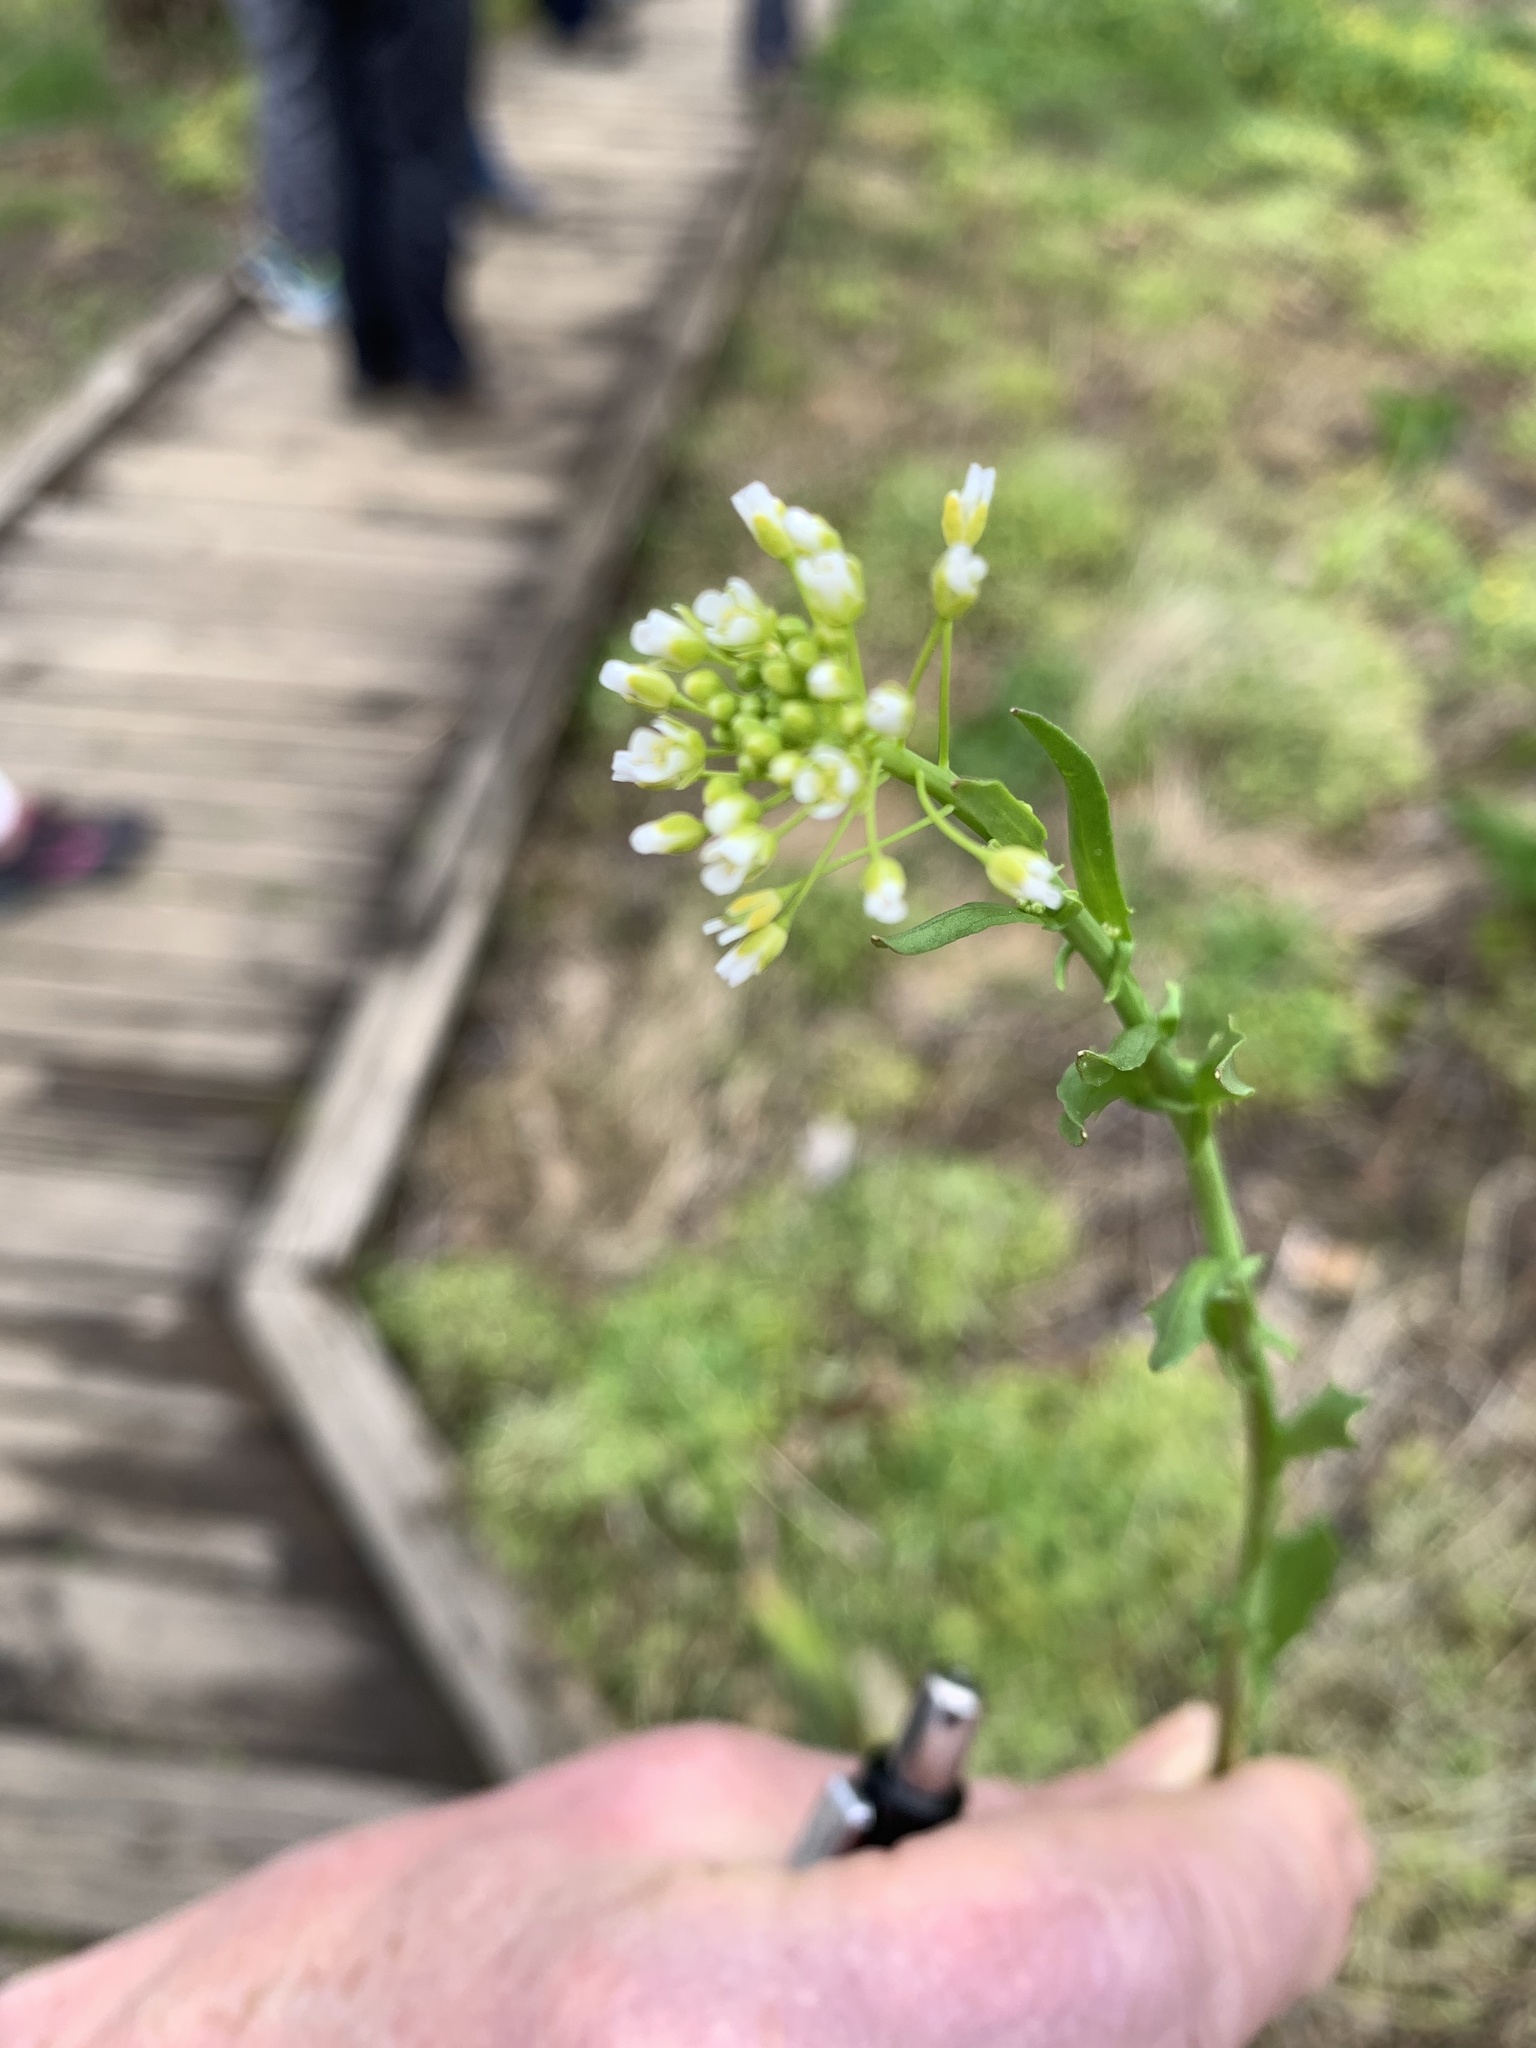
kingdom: Plantae
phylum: Tracheophyta
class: Magnoliopsida
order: Brassicales
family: Brassicaceae
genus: Thlaspi
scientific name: Thlaspi arvense
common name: Field pennycress
